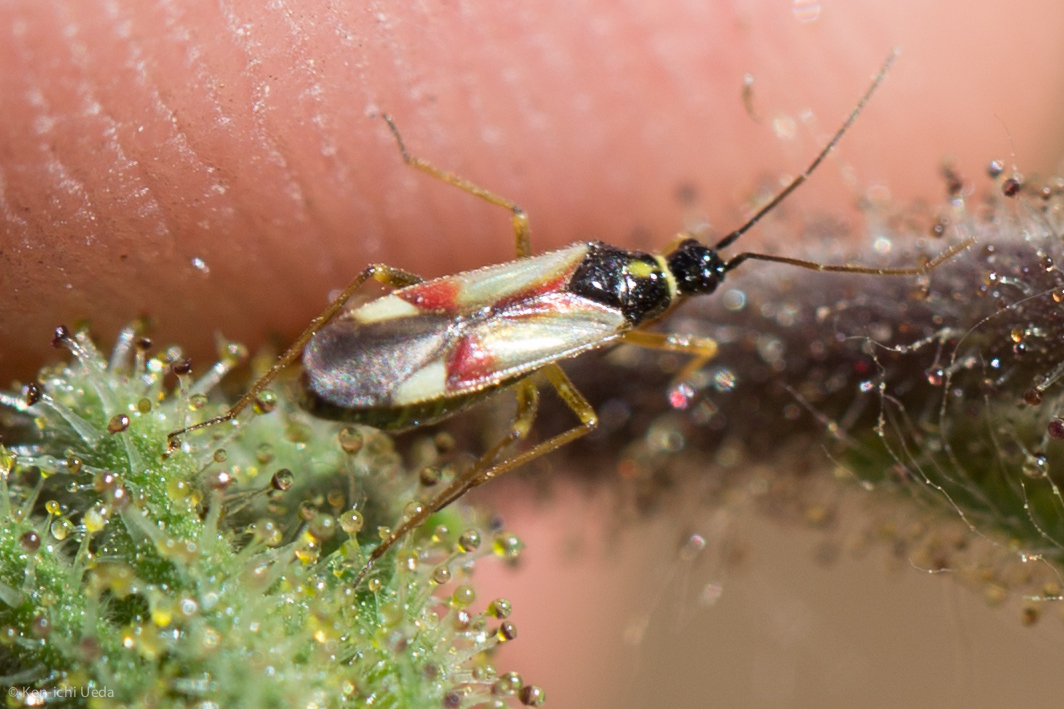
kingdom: Animalia
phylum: Arthropoda
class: Insecta
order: Hemiptera
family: Miridae
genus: Tupiocoris
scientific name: Tupiocoris californicus
